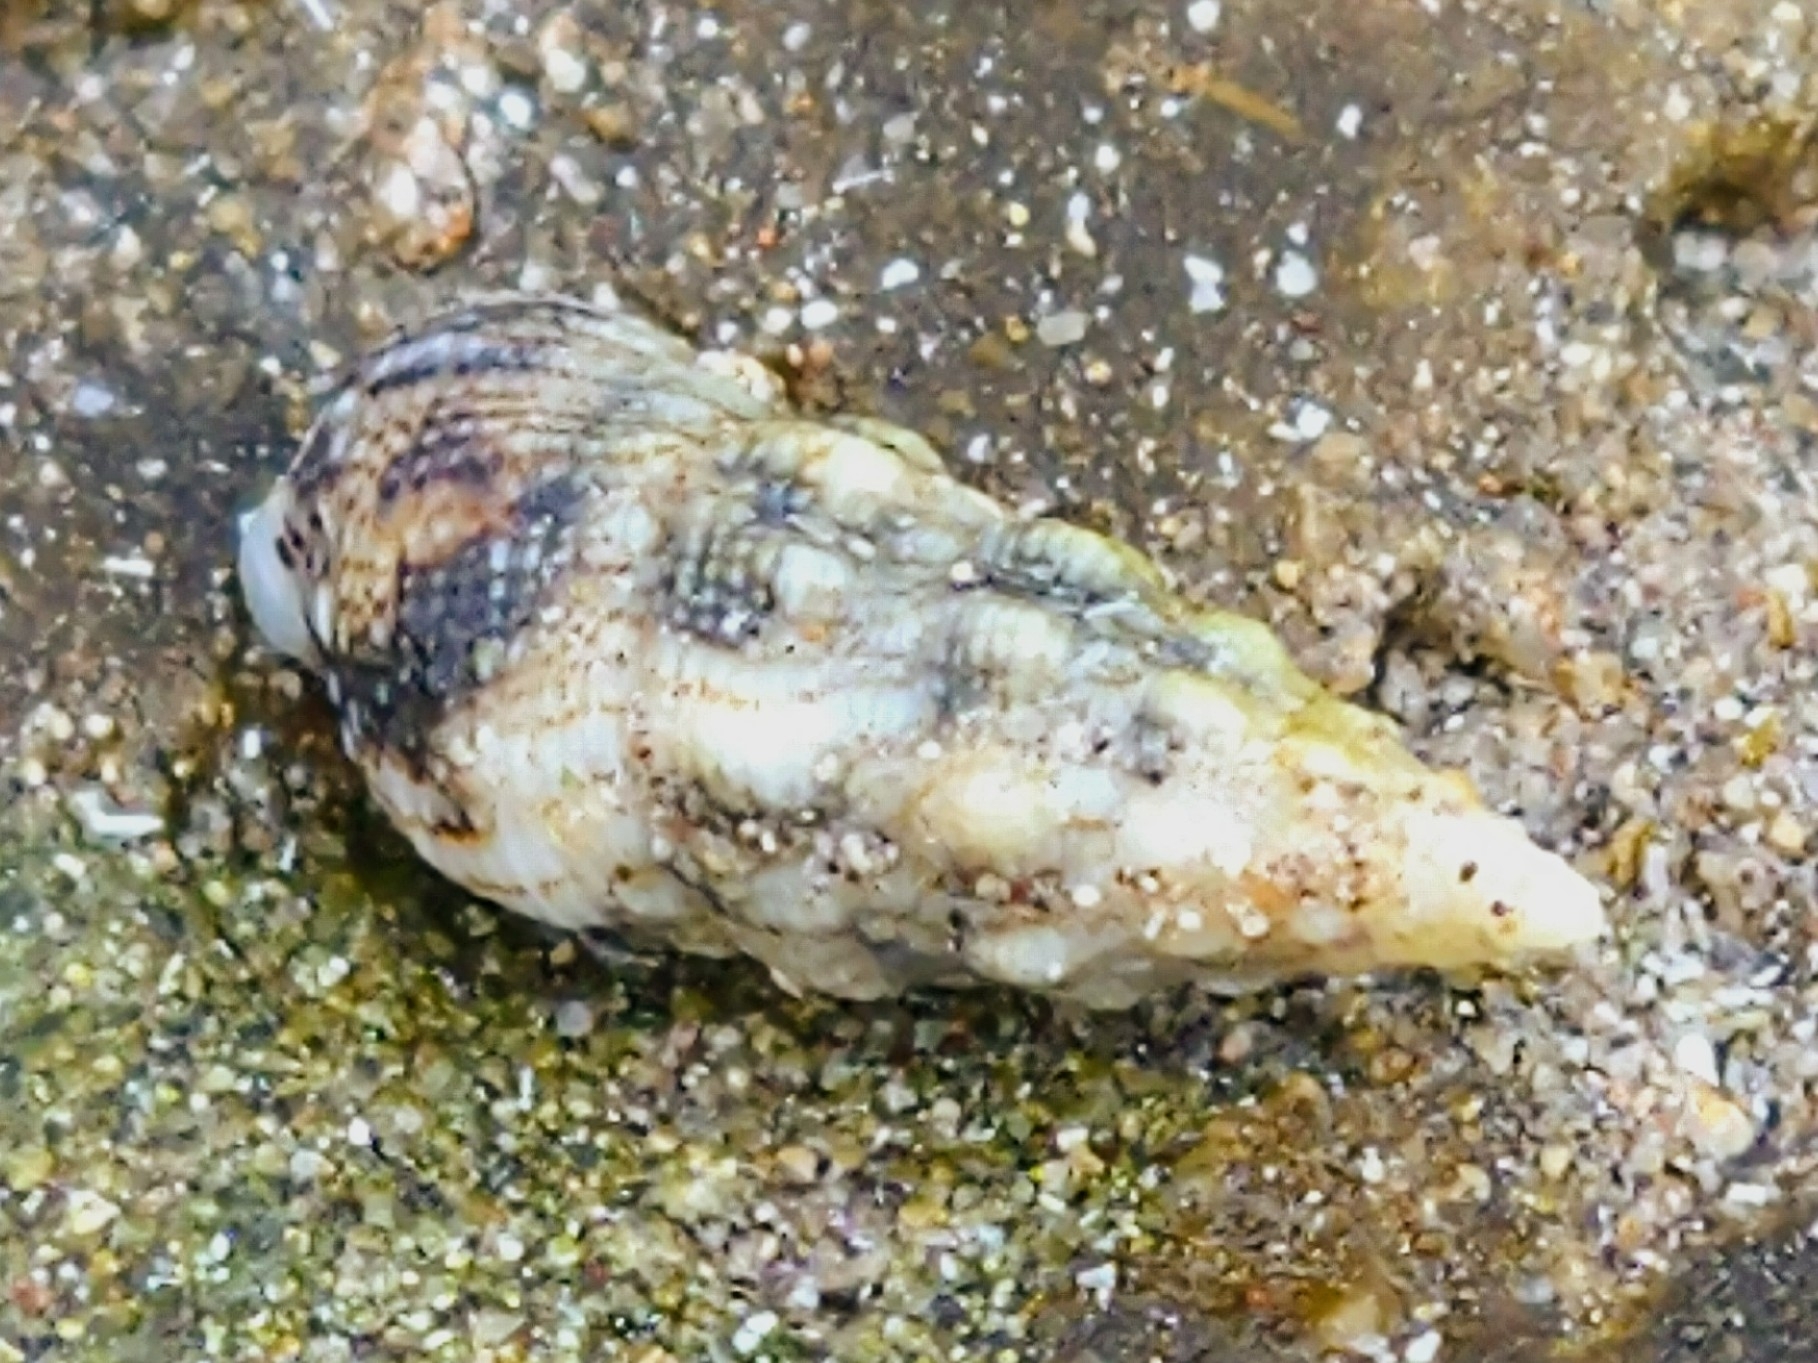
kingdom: Animalia
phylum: Mollusca
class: Gastropoda
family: Cerithiidae
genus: Cerithium
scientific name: Cerithium vulgatum
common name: European cerith
